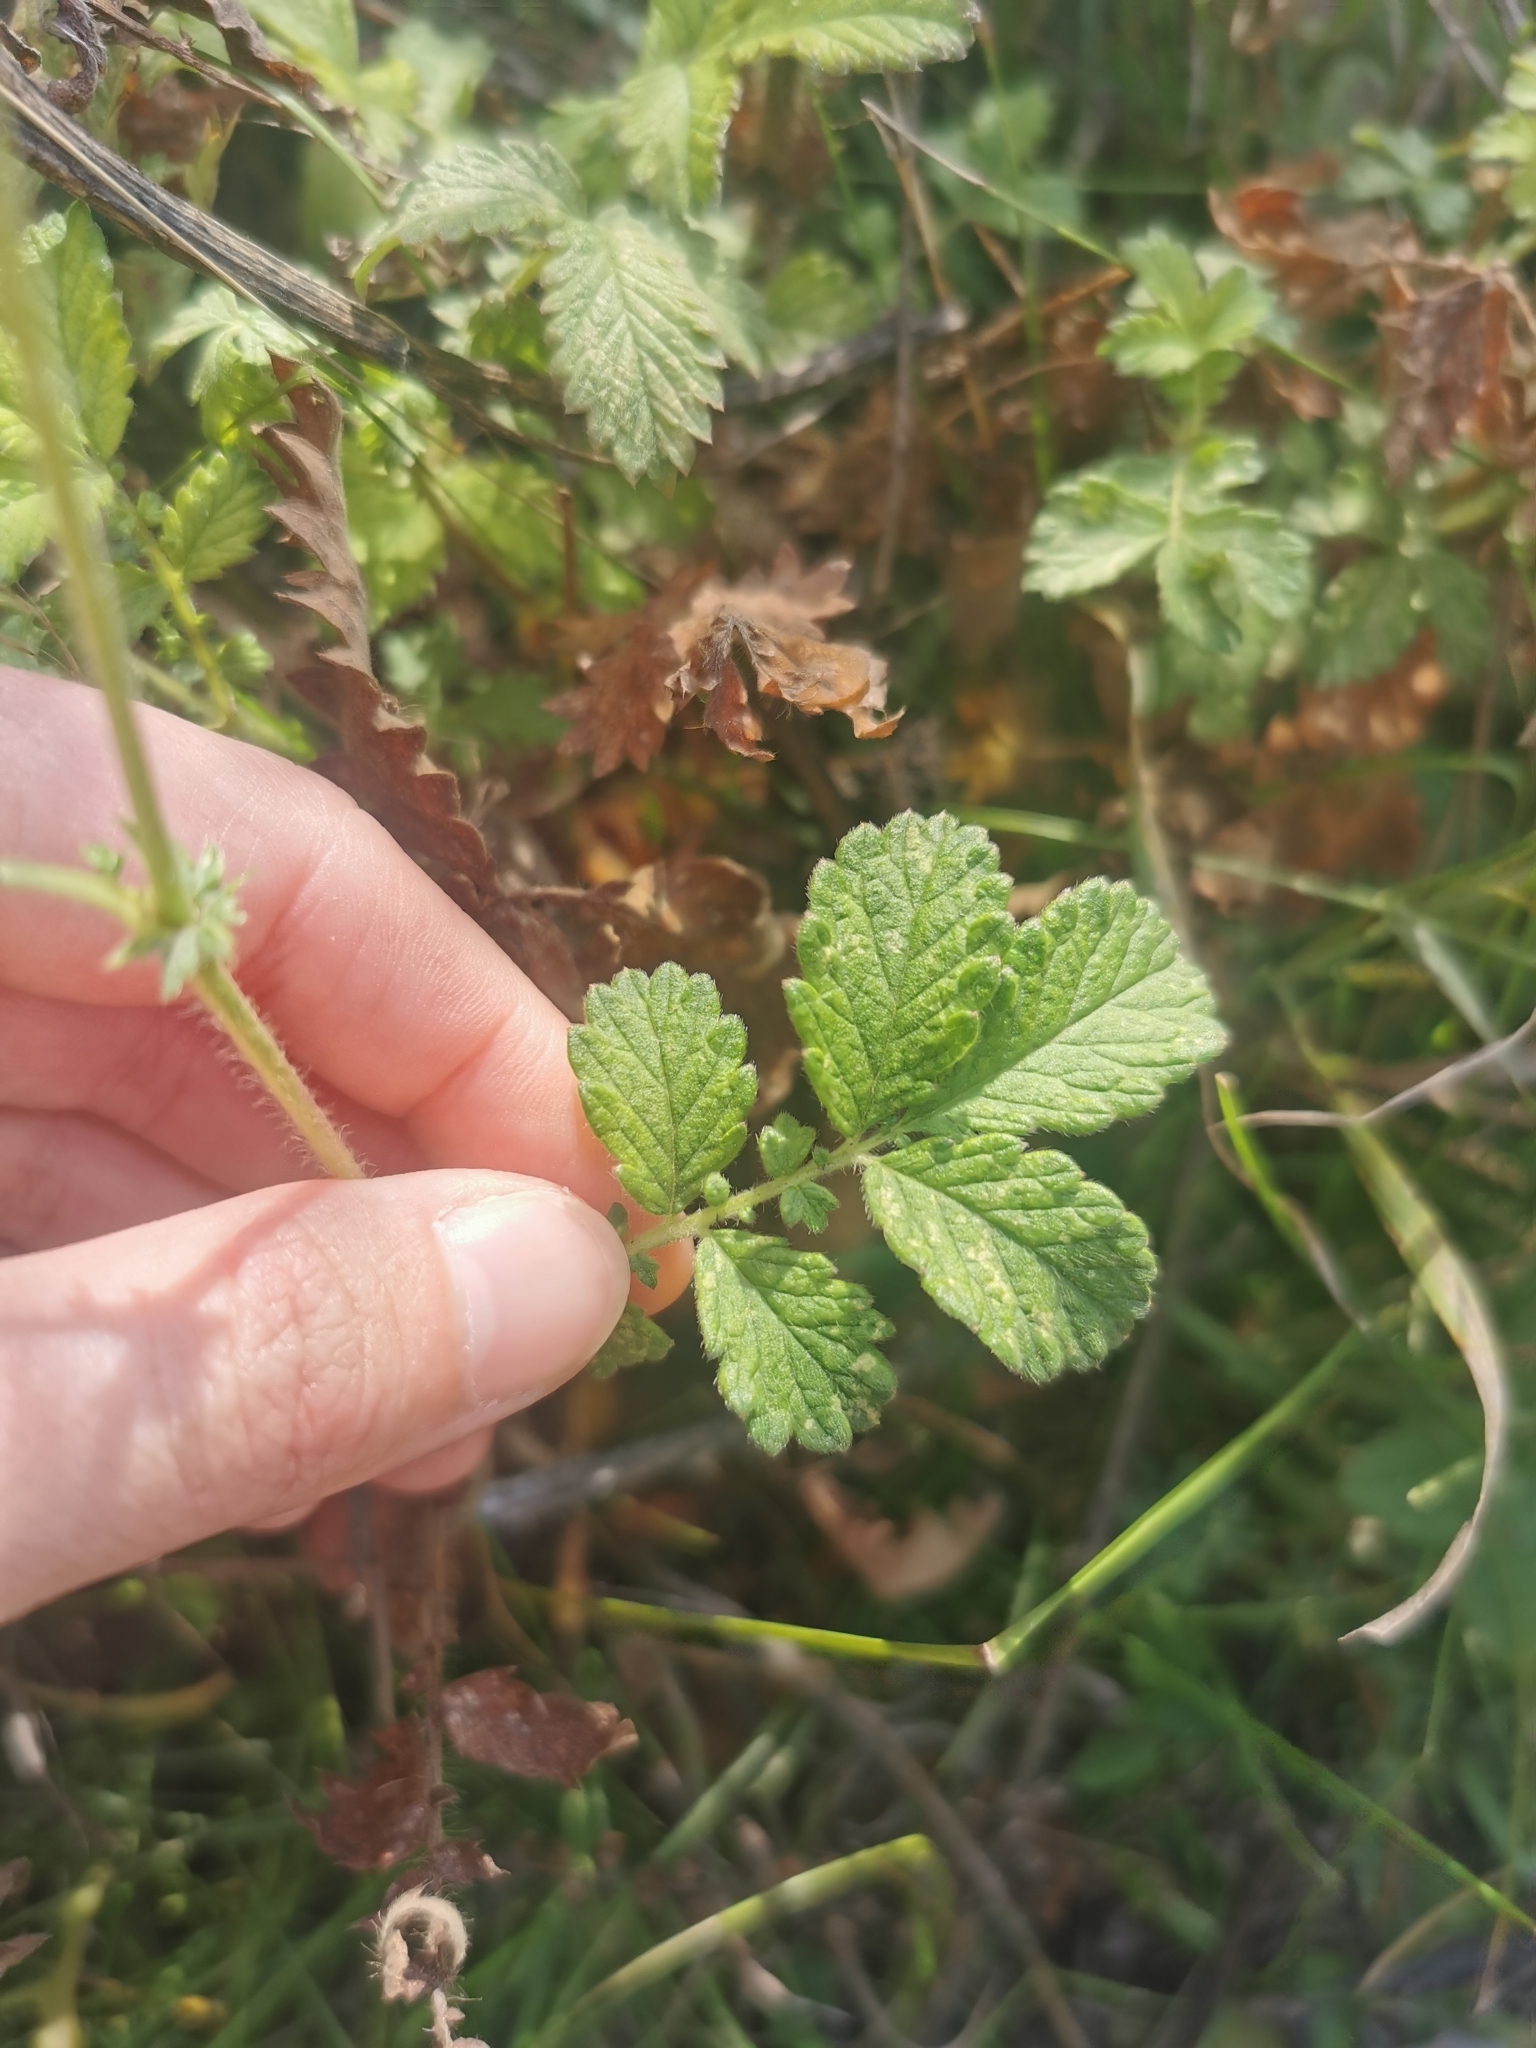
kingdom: Plantae
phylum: Tracheophyta
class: Magnoliopsida
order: Rosales
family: Rosaceae
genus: Agrimonia
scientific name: Agrimonia eupatoria
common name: Agrimony
